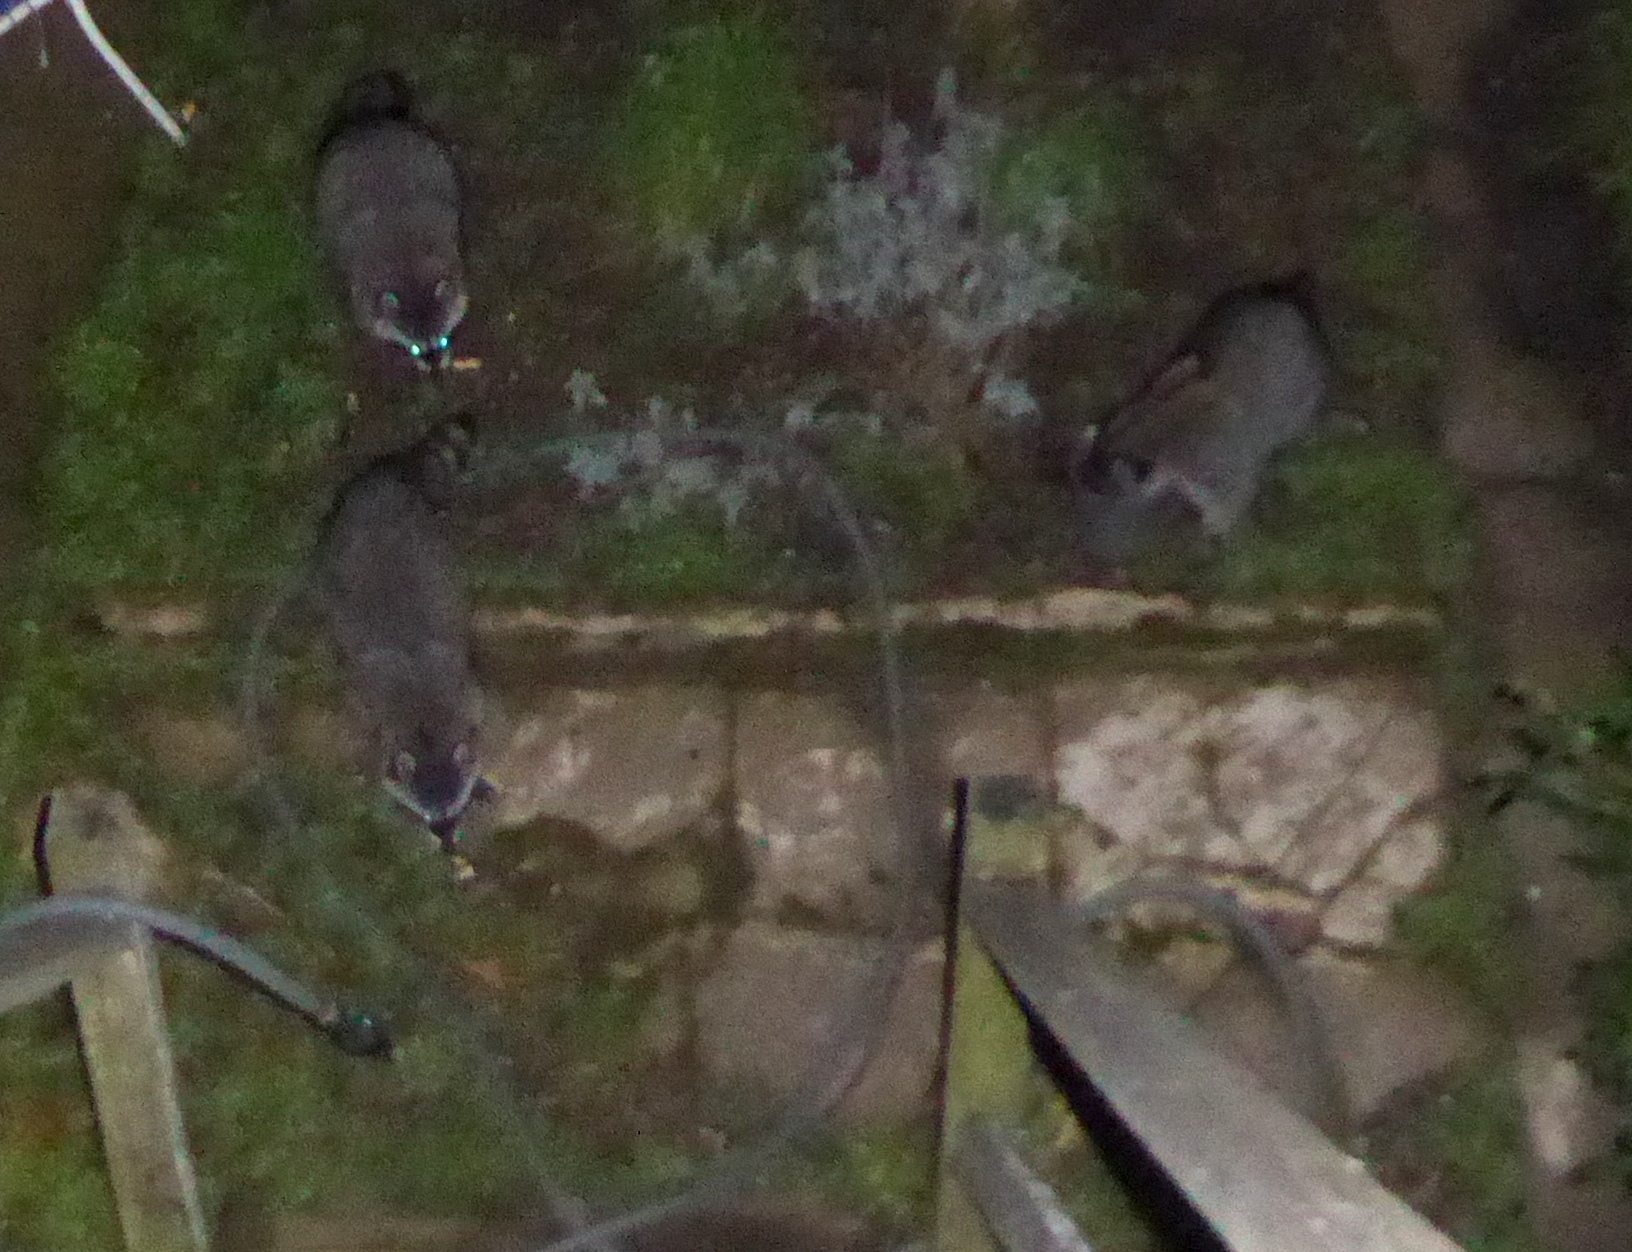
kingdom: Animalia
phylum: Chordata
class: Mammalia
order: Carnivora
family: Procyonidae
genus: Procyon
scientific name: Procyon lotor
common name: Raccoon
